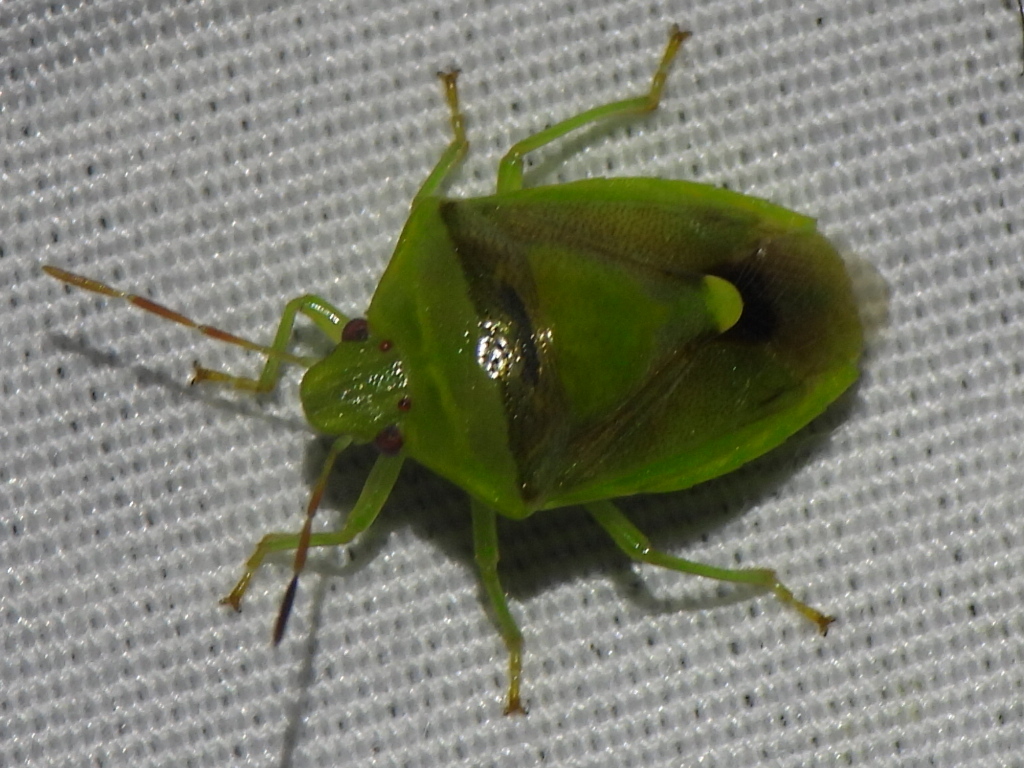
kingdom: Animalia
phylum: Arthropoda
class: Insecta
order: Hemiptera
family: Pentatomidae
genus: Banasa
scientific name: Banasa dimidiata
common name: Green burgundy stink bug
